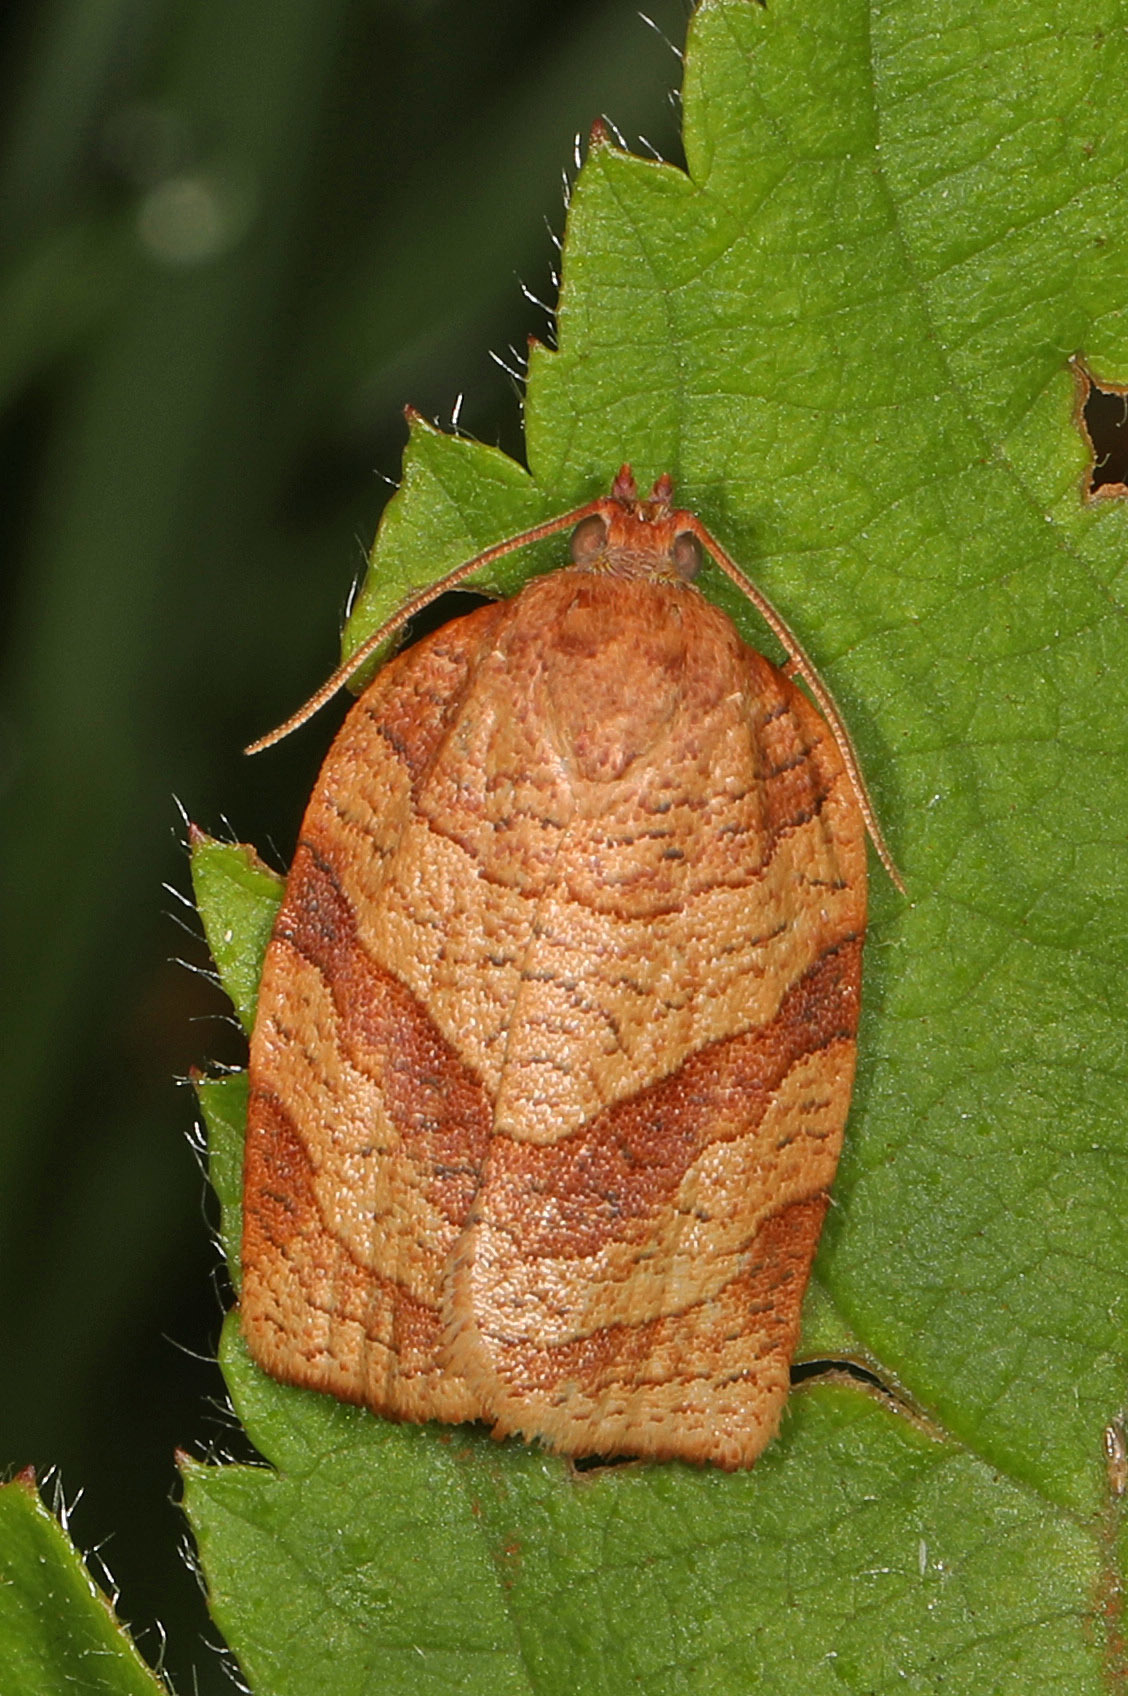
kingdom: Animalia
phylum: Arthropoda
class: Insecta
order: Lepidoptera
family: Tortricidae
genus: Choristoneura
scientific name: Choristoneura parallela
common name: Parallel-banded leafroller moth
